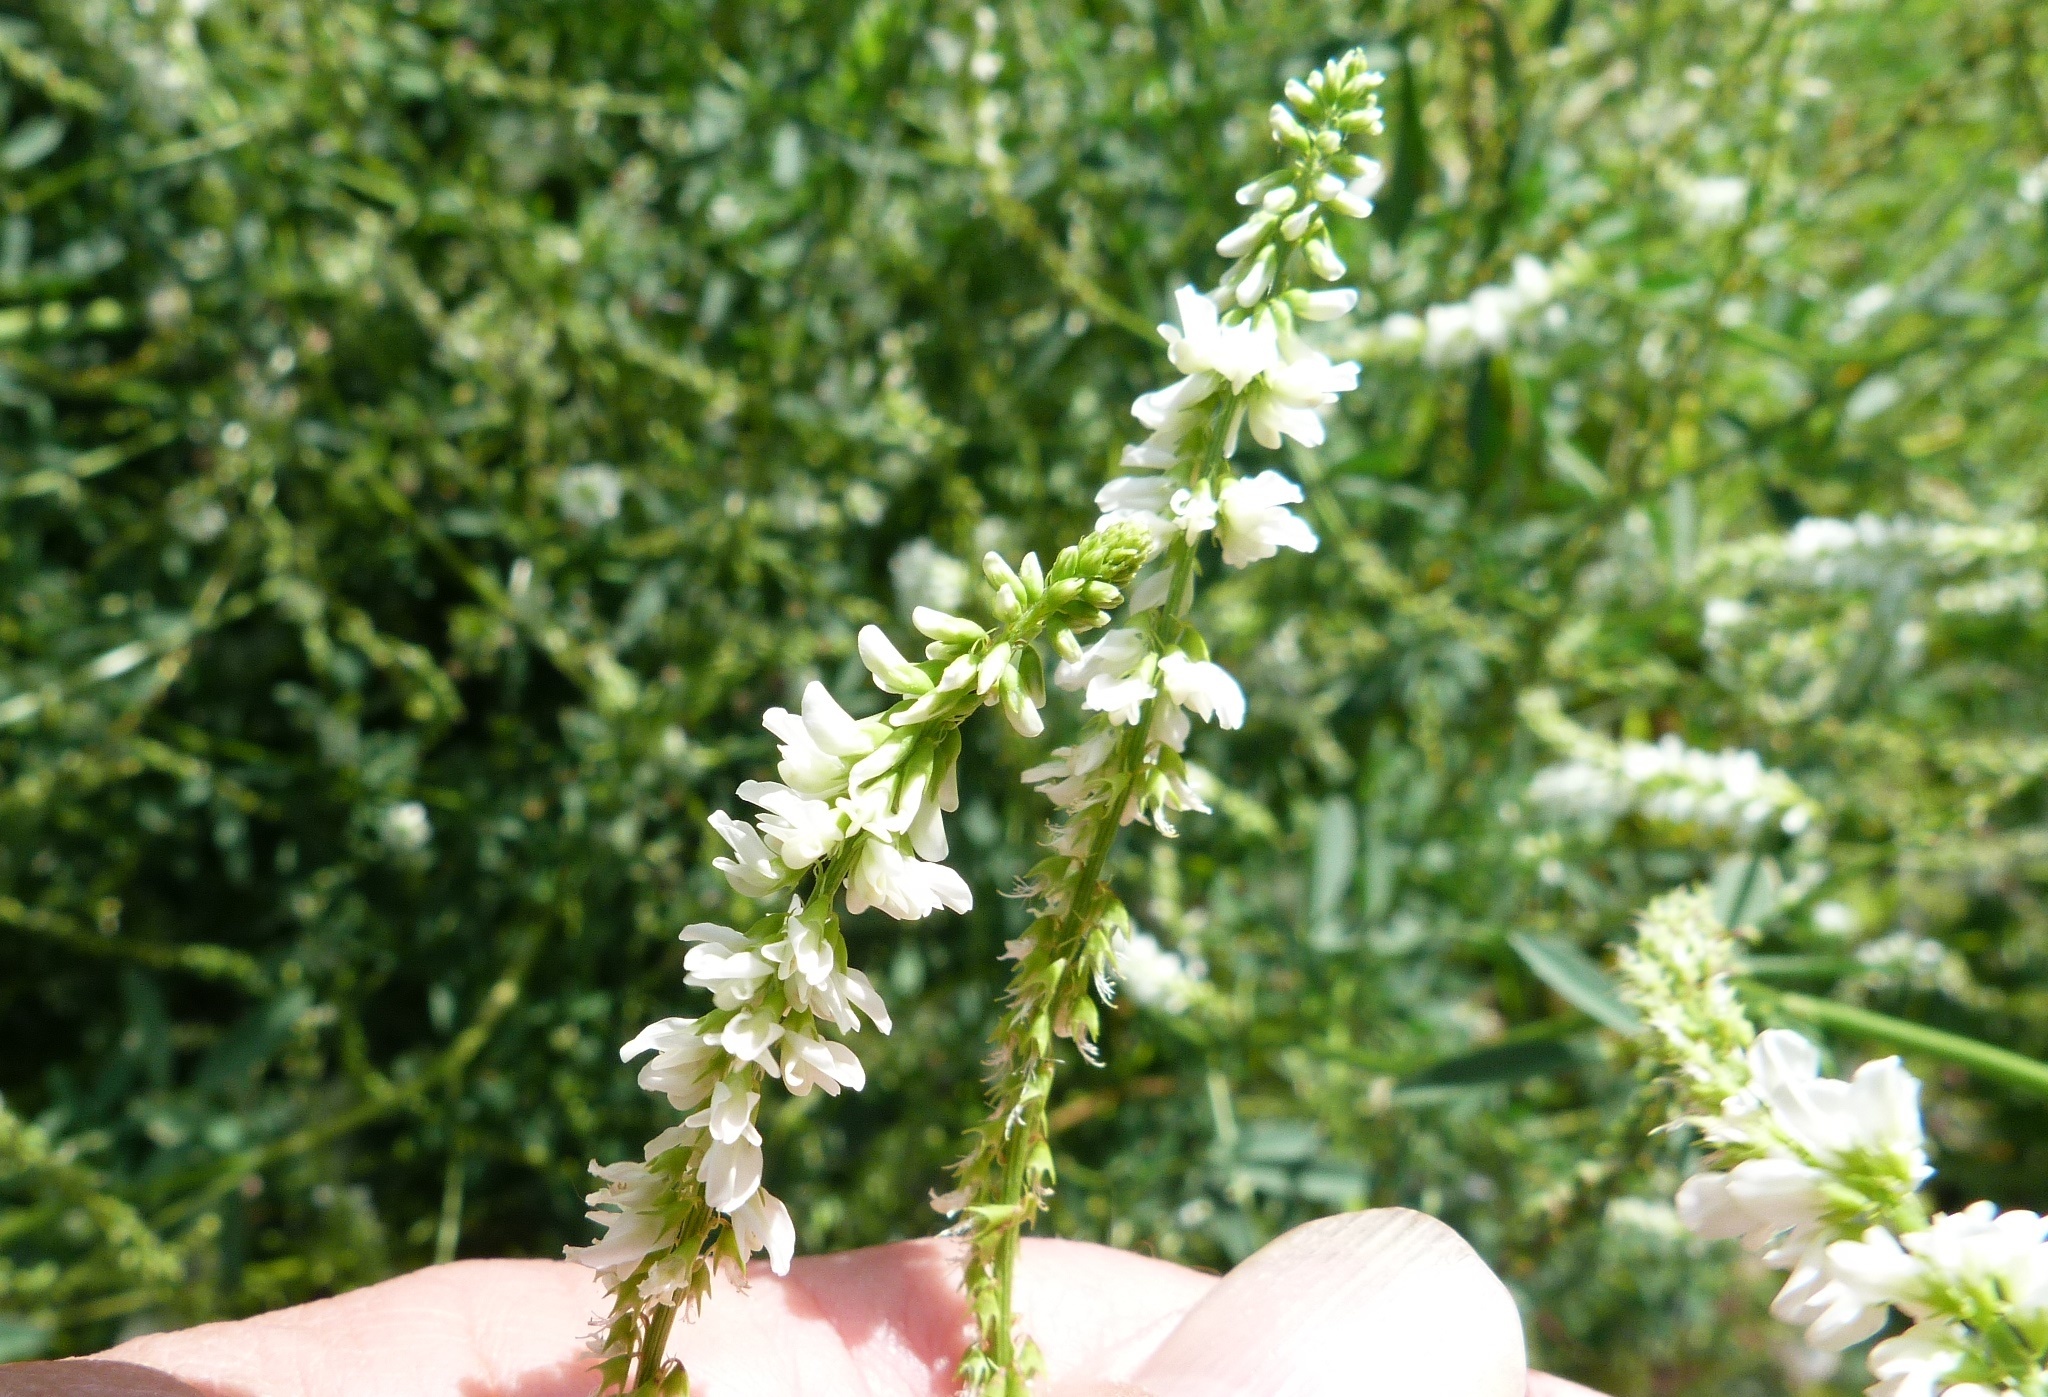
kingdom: Plantae
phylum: Tracheophyta
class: Magnoliopsida
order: Fabales
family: Fabaceae
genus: Melilotus
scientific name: Melilotus albus
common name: White melilot
